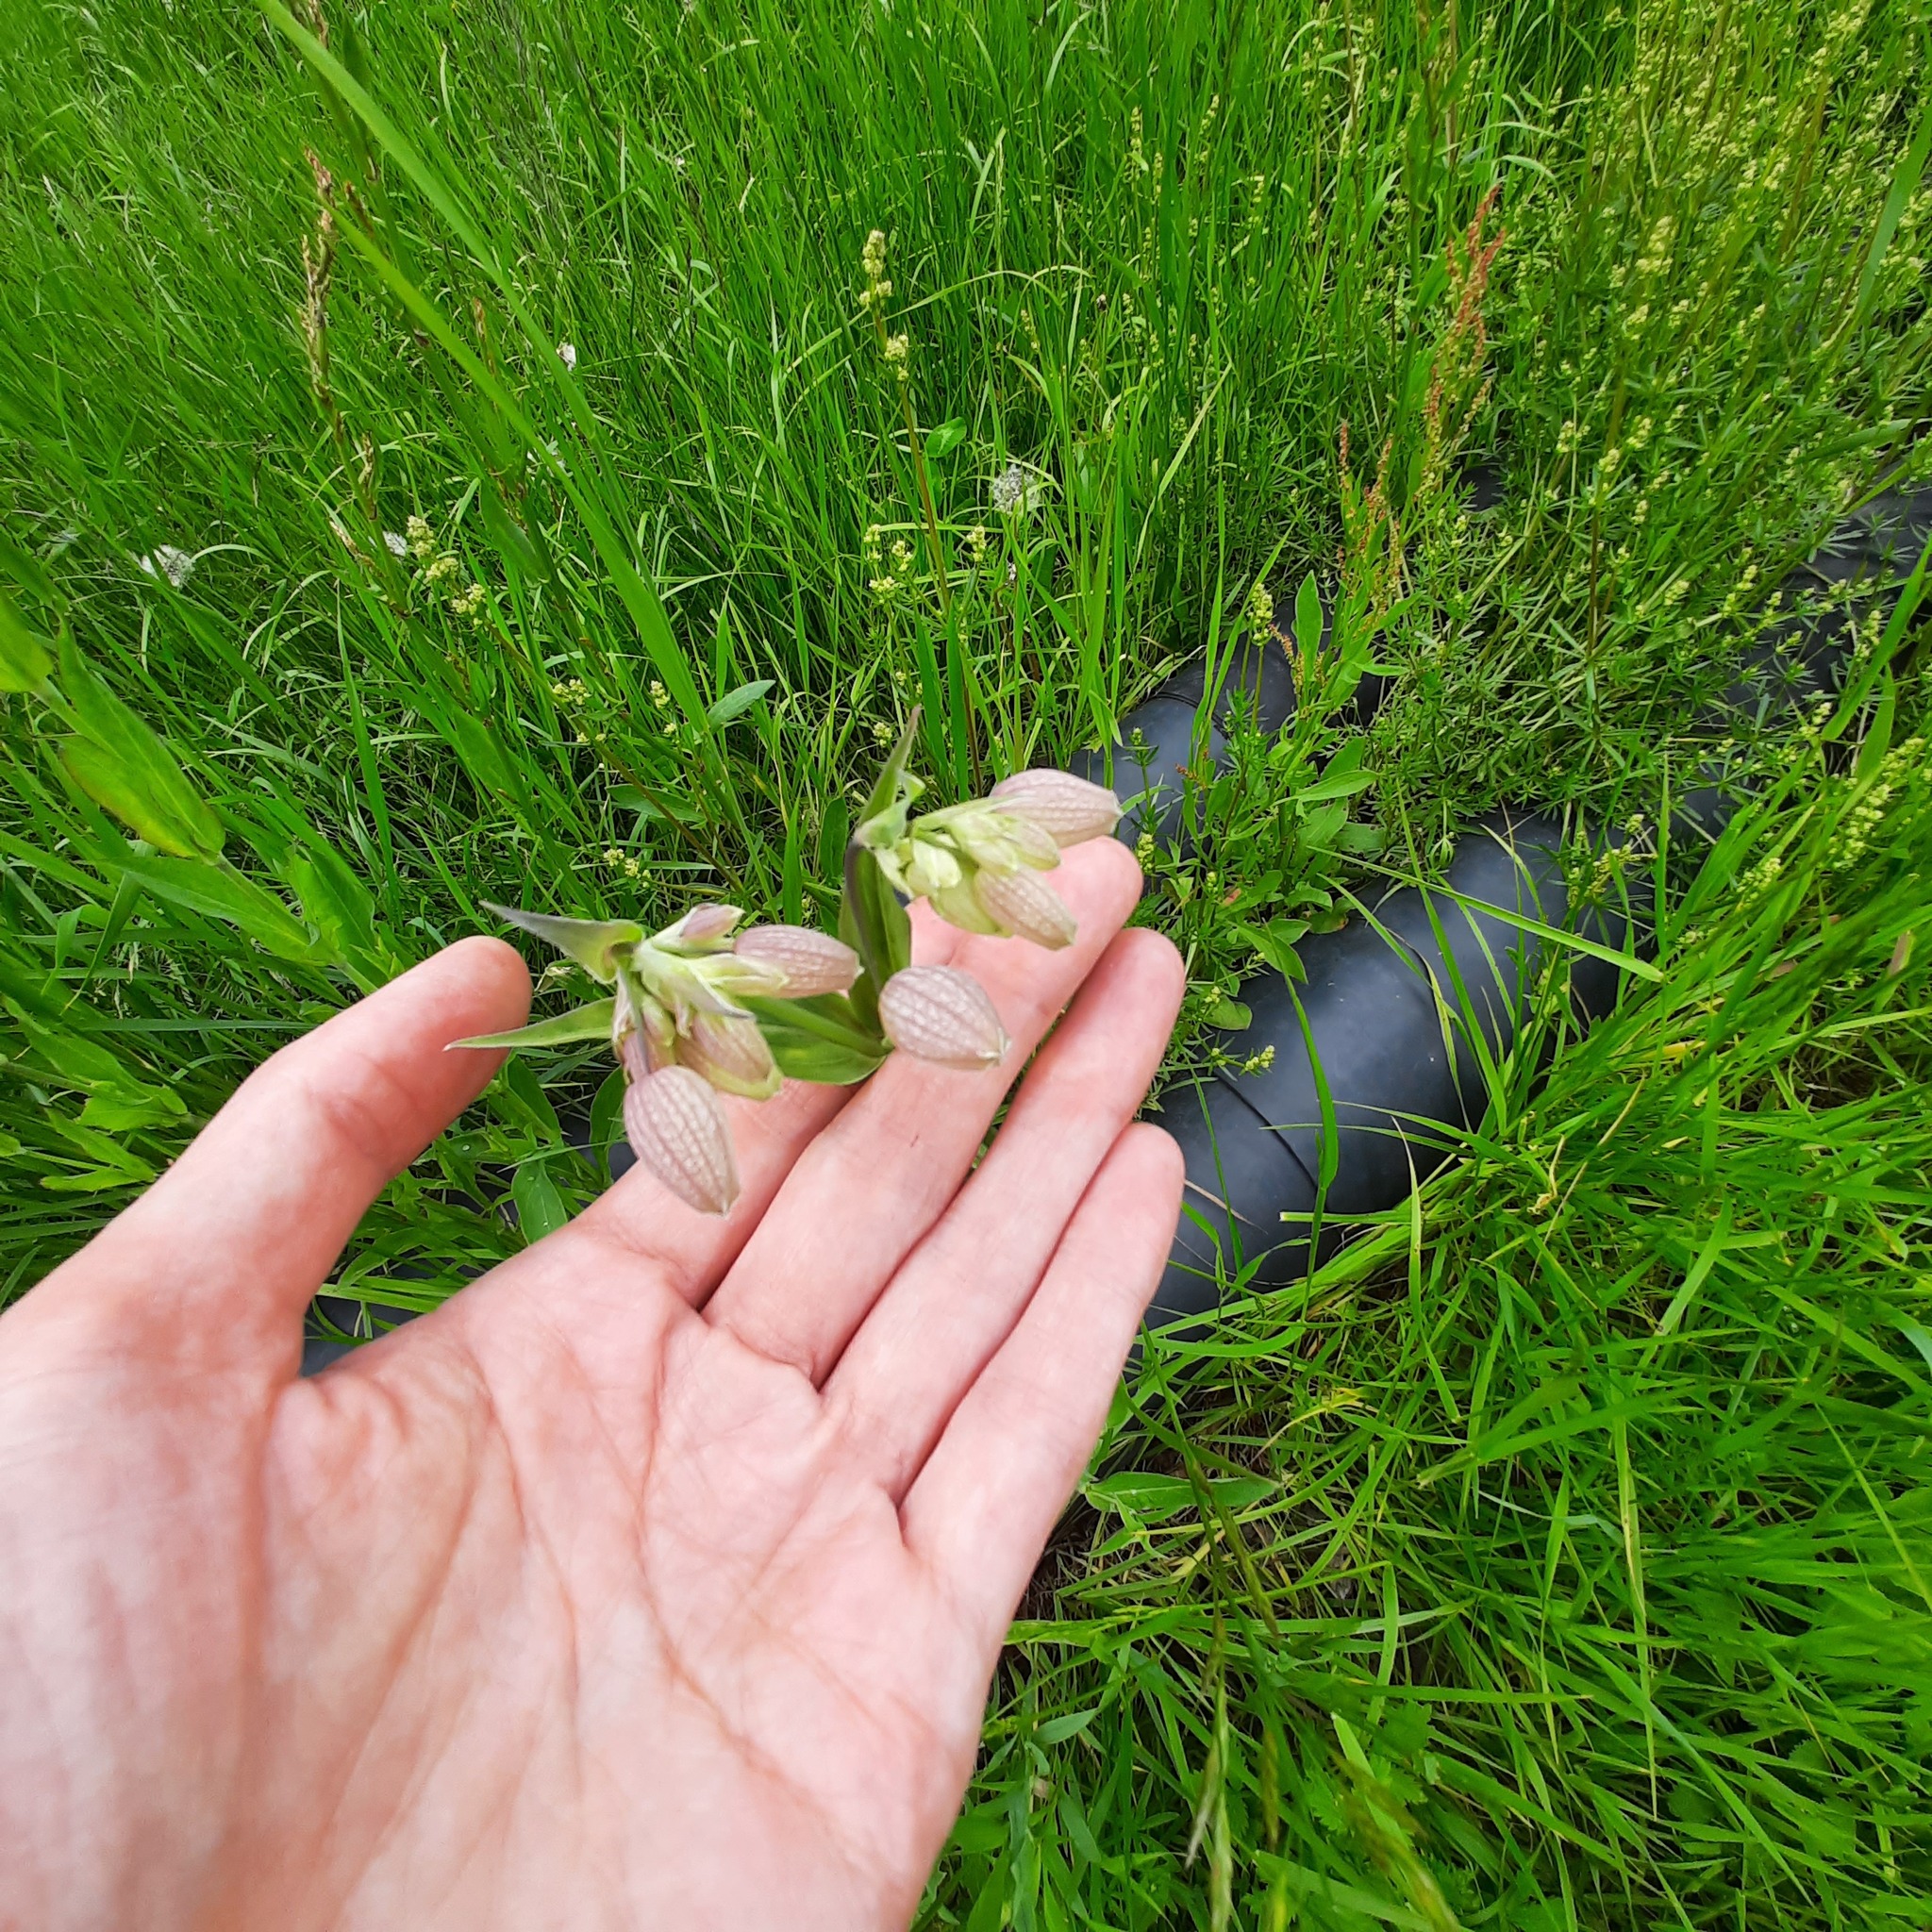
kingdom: Plantae
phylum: Tracheophyta
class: Magnoliopsida
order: Caryophyllales
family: Caryophyllaceae
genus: Silene
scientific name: Silene vulgaris
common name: Bladder campion
